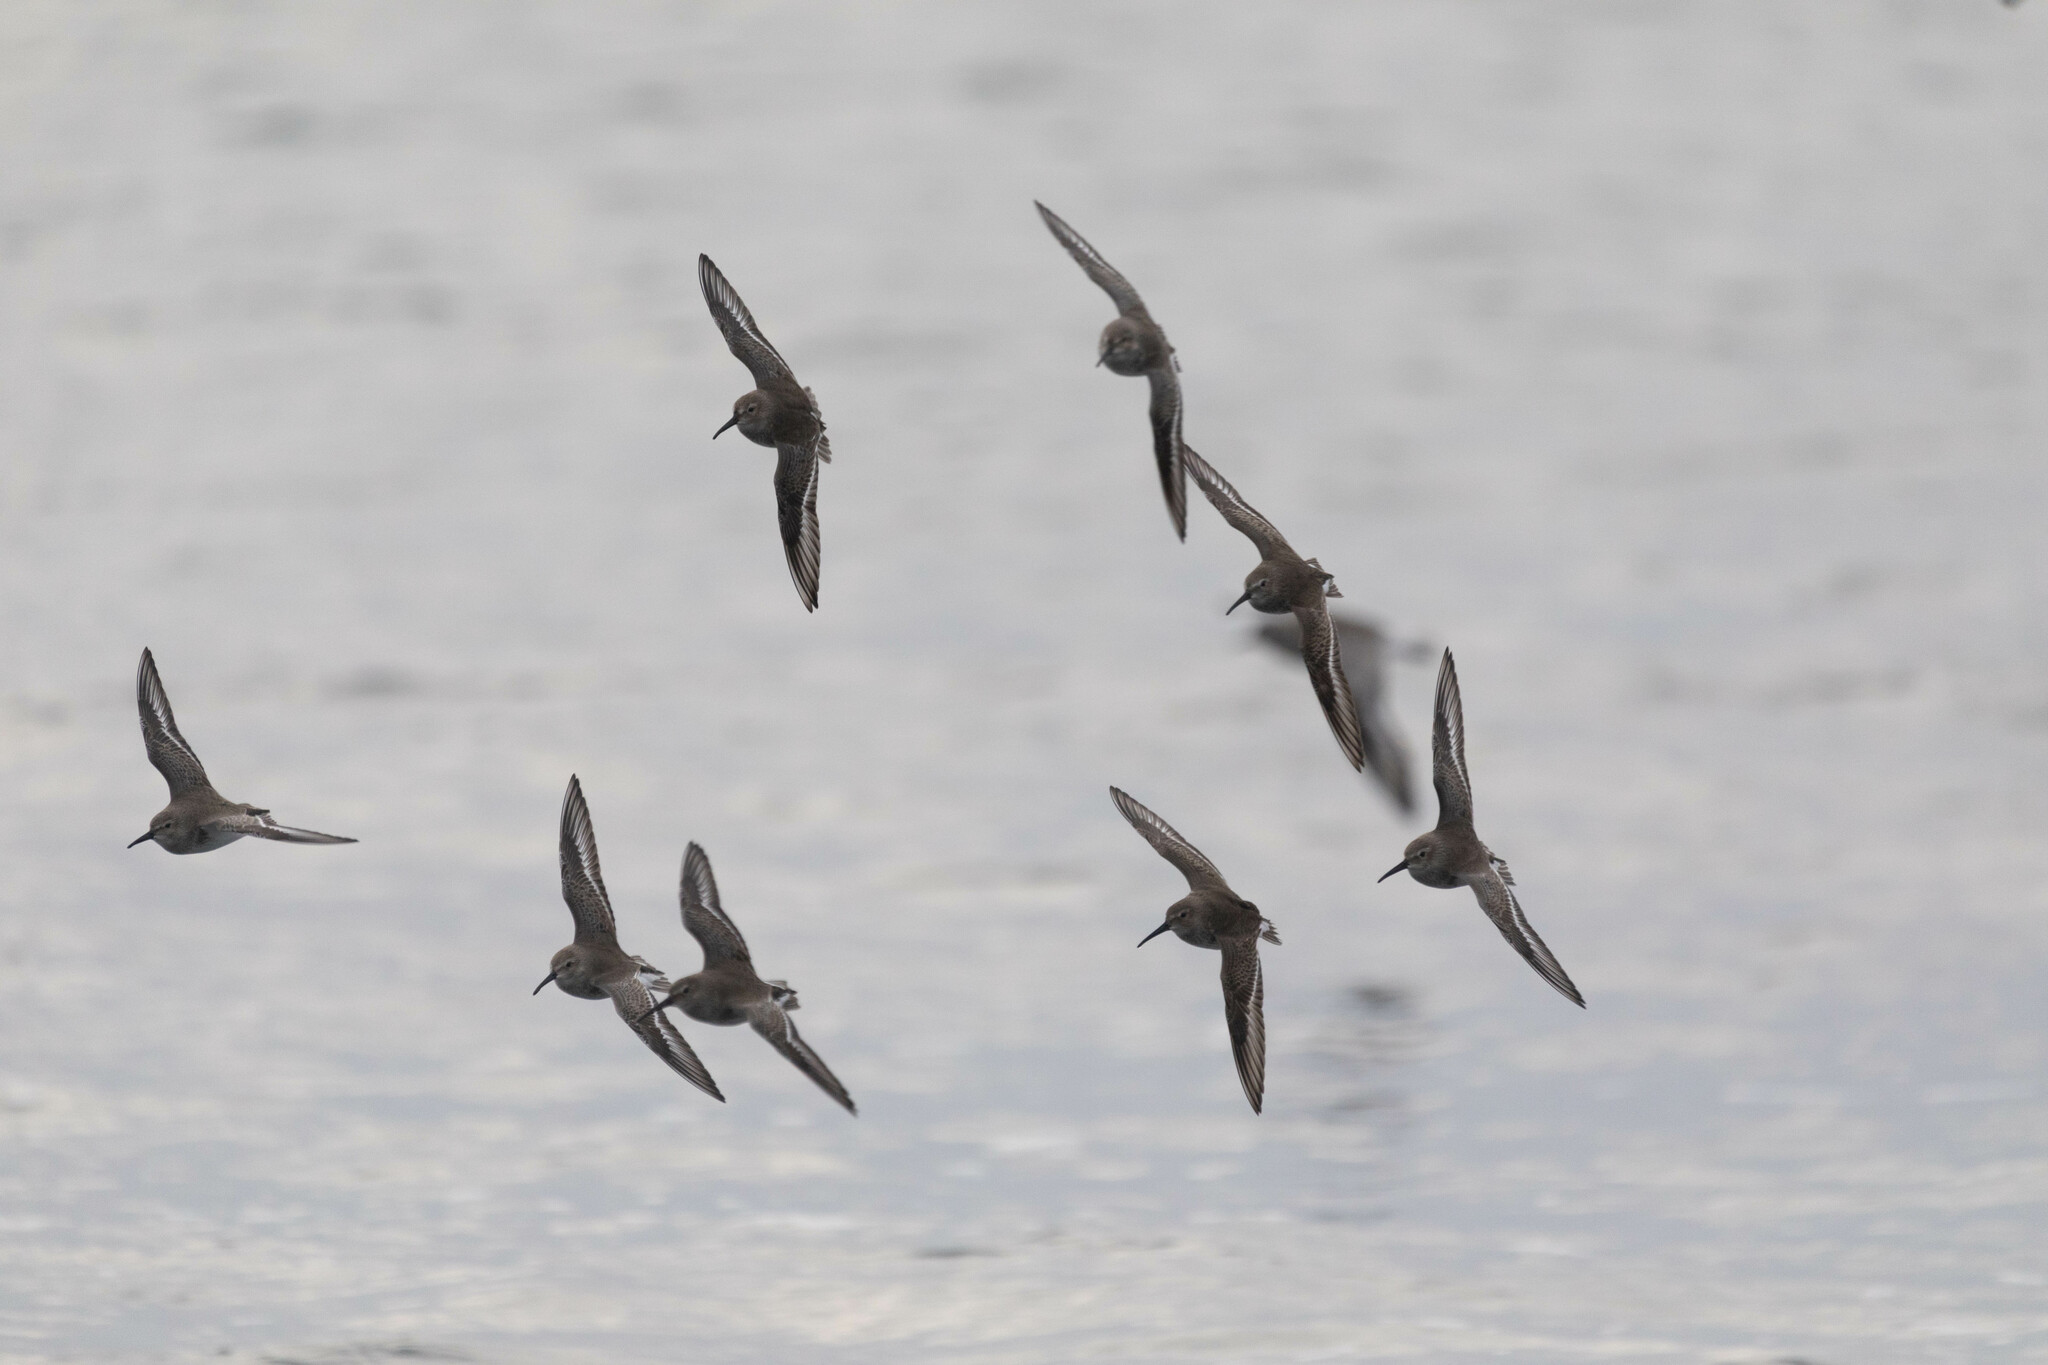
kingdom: Animalia
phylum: Chordata
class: Aves
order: Charadriiformes
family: Scolopacidae
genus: Calidris
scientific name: Calidris alpina
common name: Dunlin
